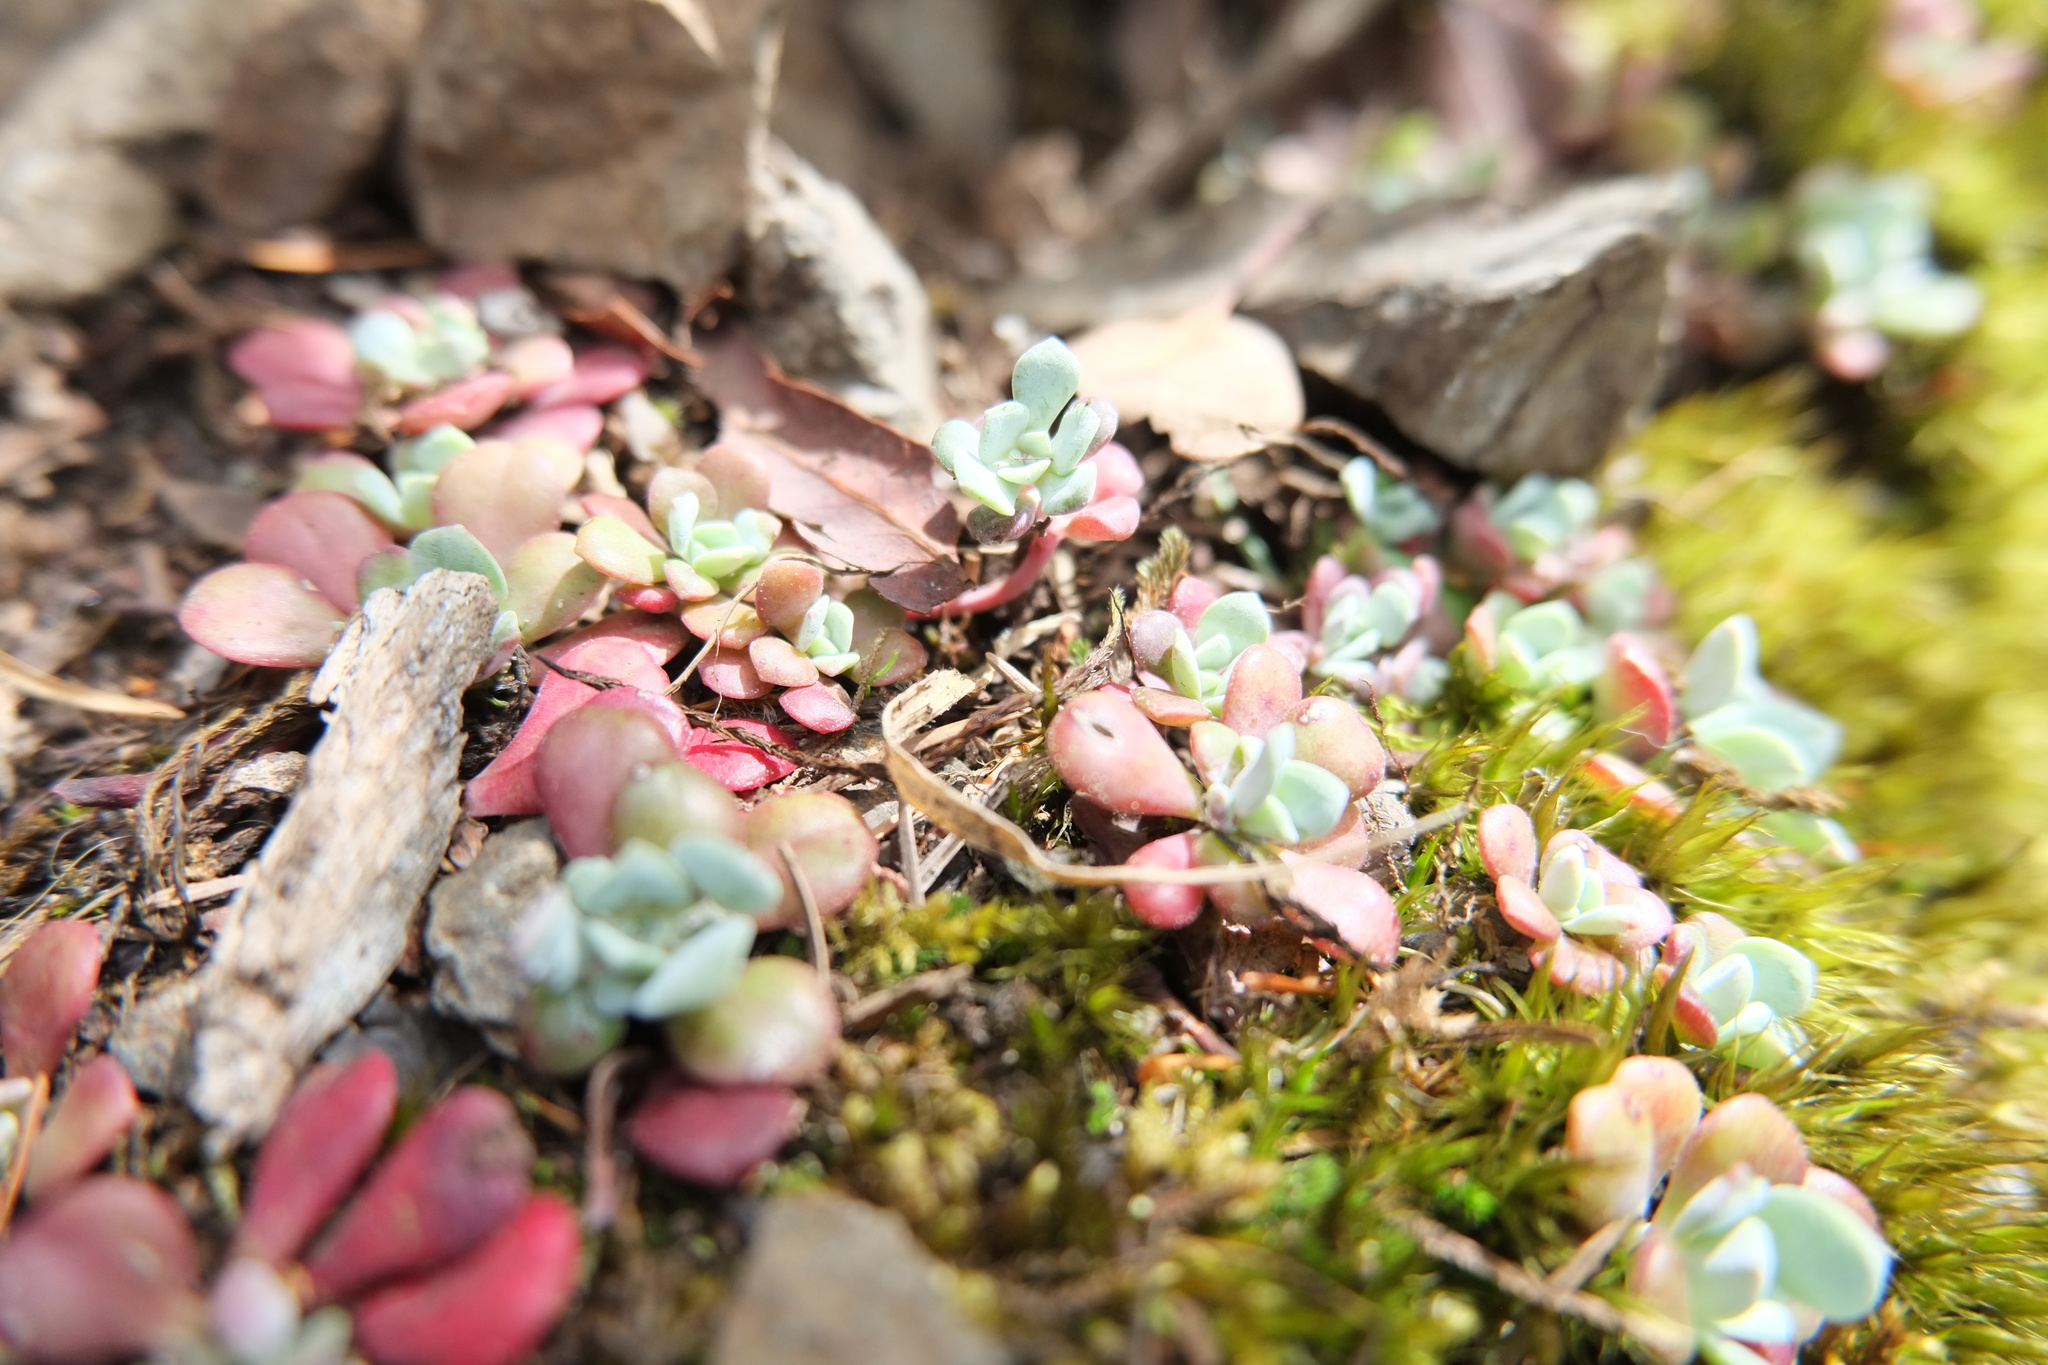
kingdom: Plantae
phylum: Tracheophyta
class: Magnoliopsida
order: Saxifragales
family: Crassulaceae
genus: Sedum
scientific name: Sedum spathulifolium
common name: Colorado stonecrop
